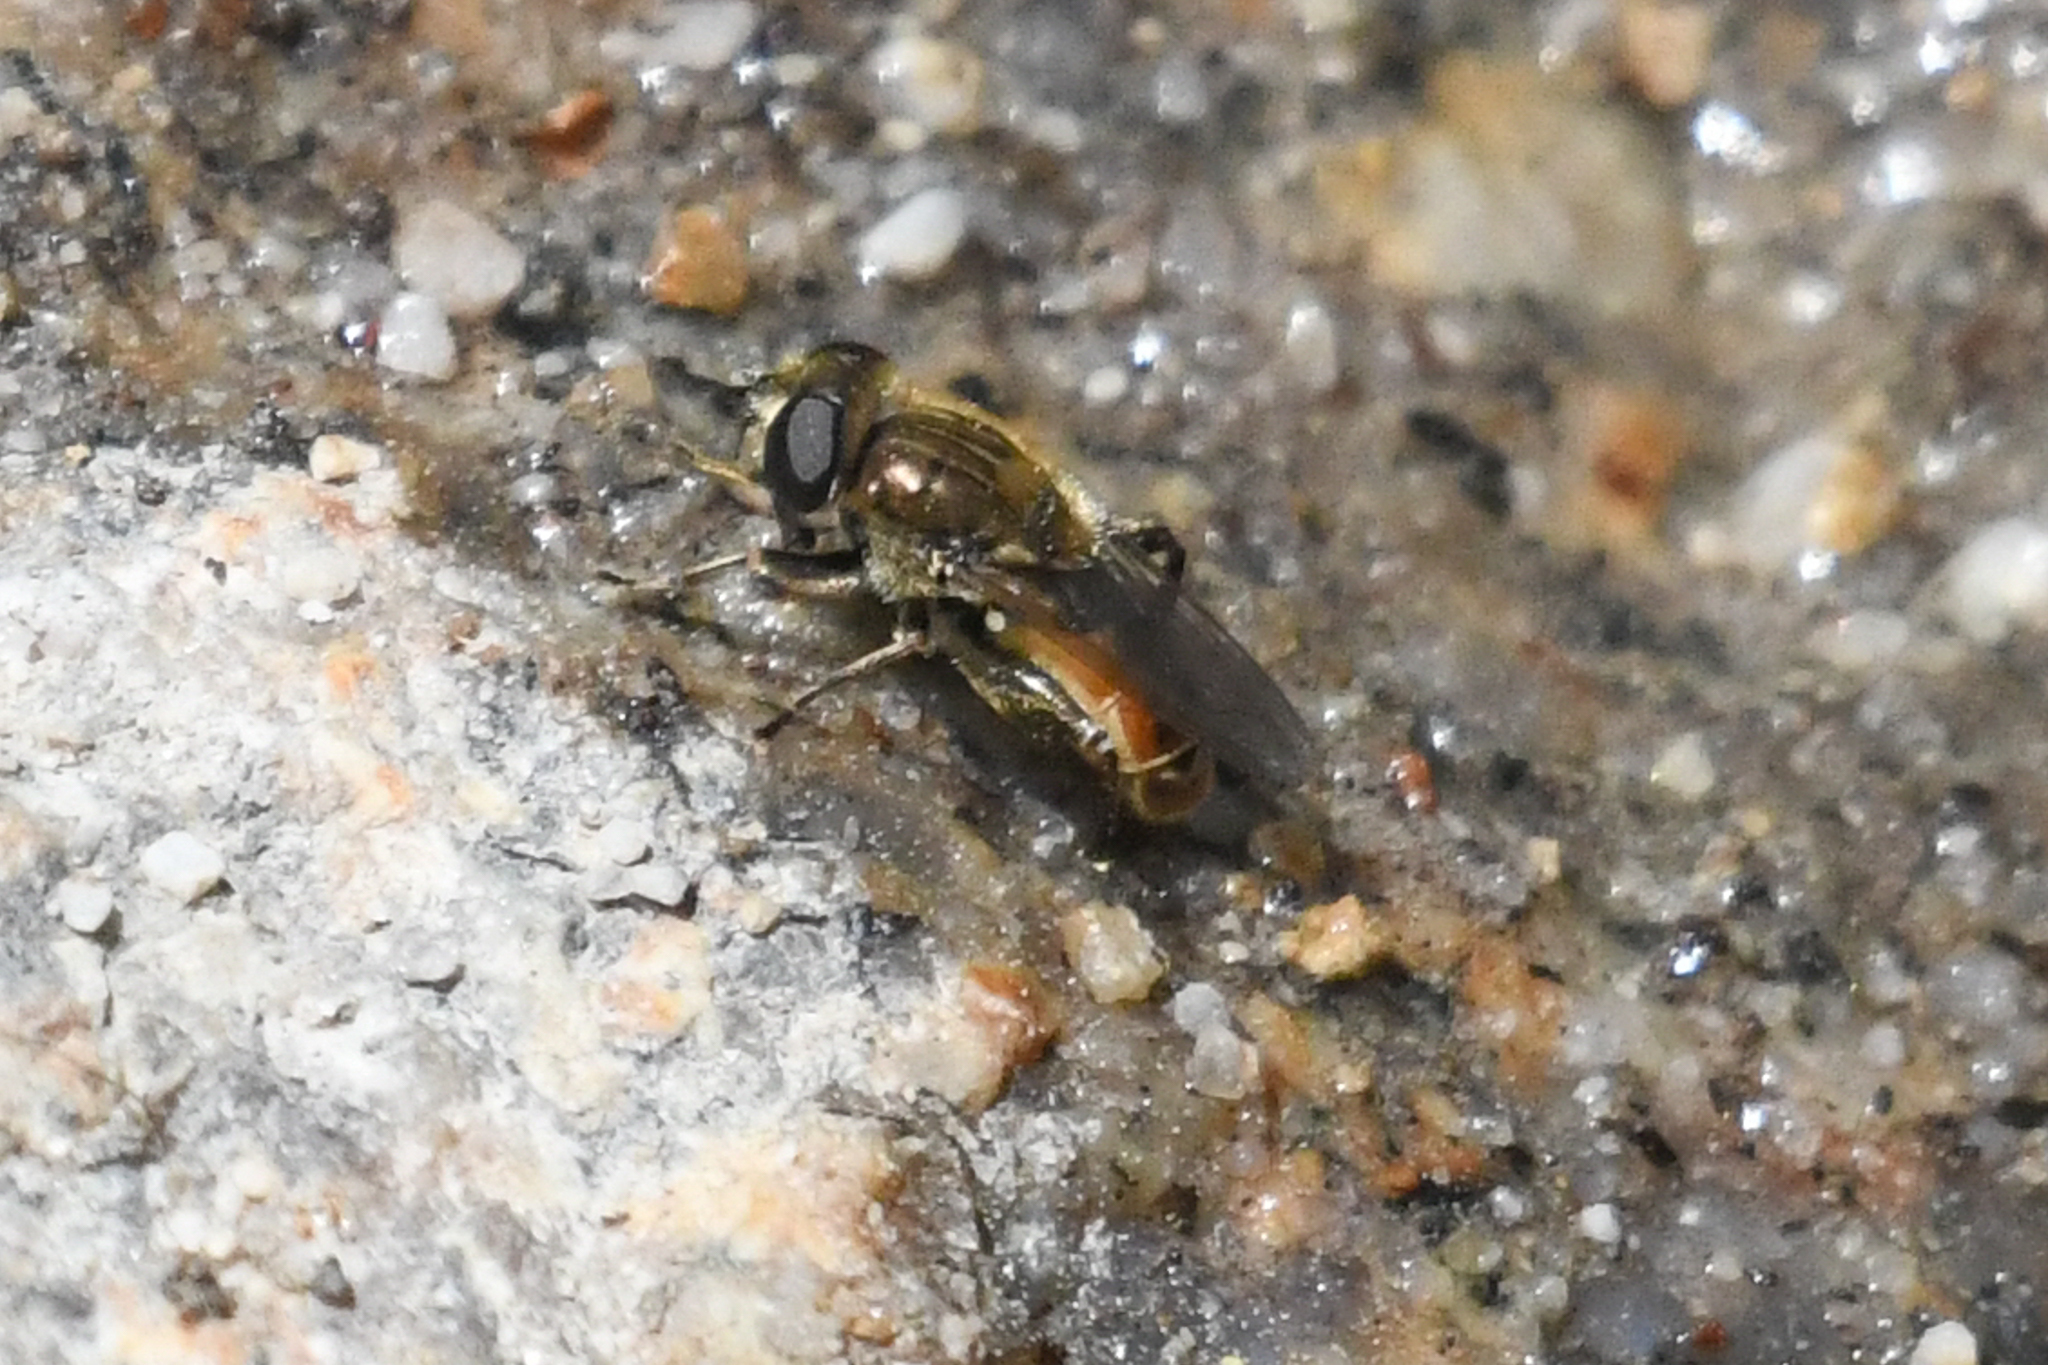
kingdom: Animalia
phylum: Arthropoda
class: Insecta
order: Diptera
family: Syrphidae
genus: Asemosyrphus
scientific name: Asemosyrphus polygrammus
